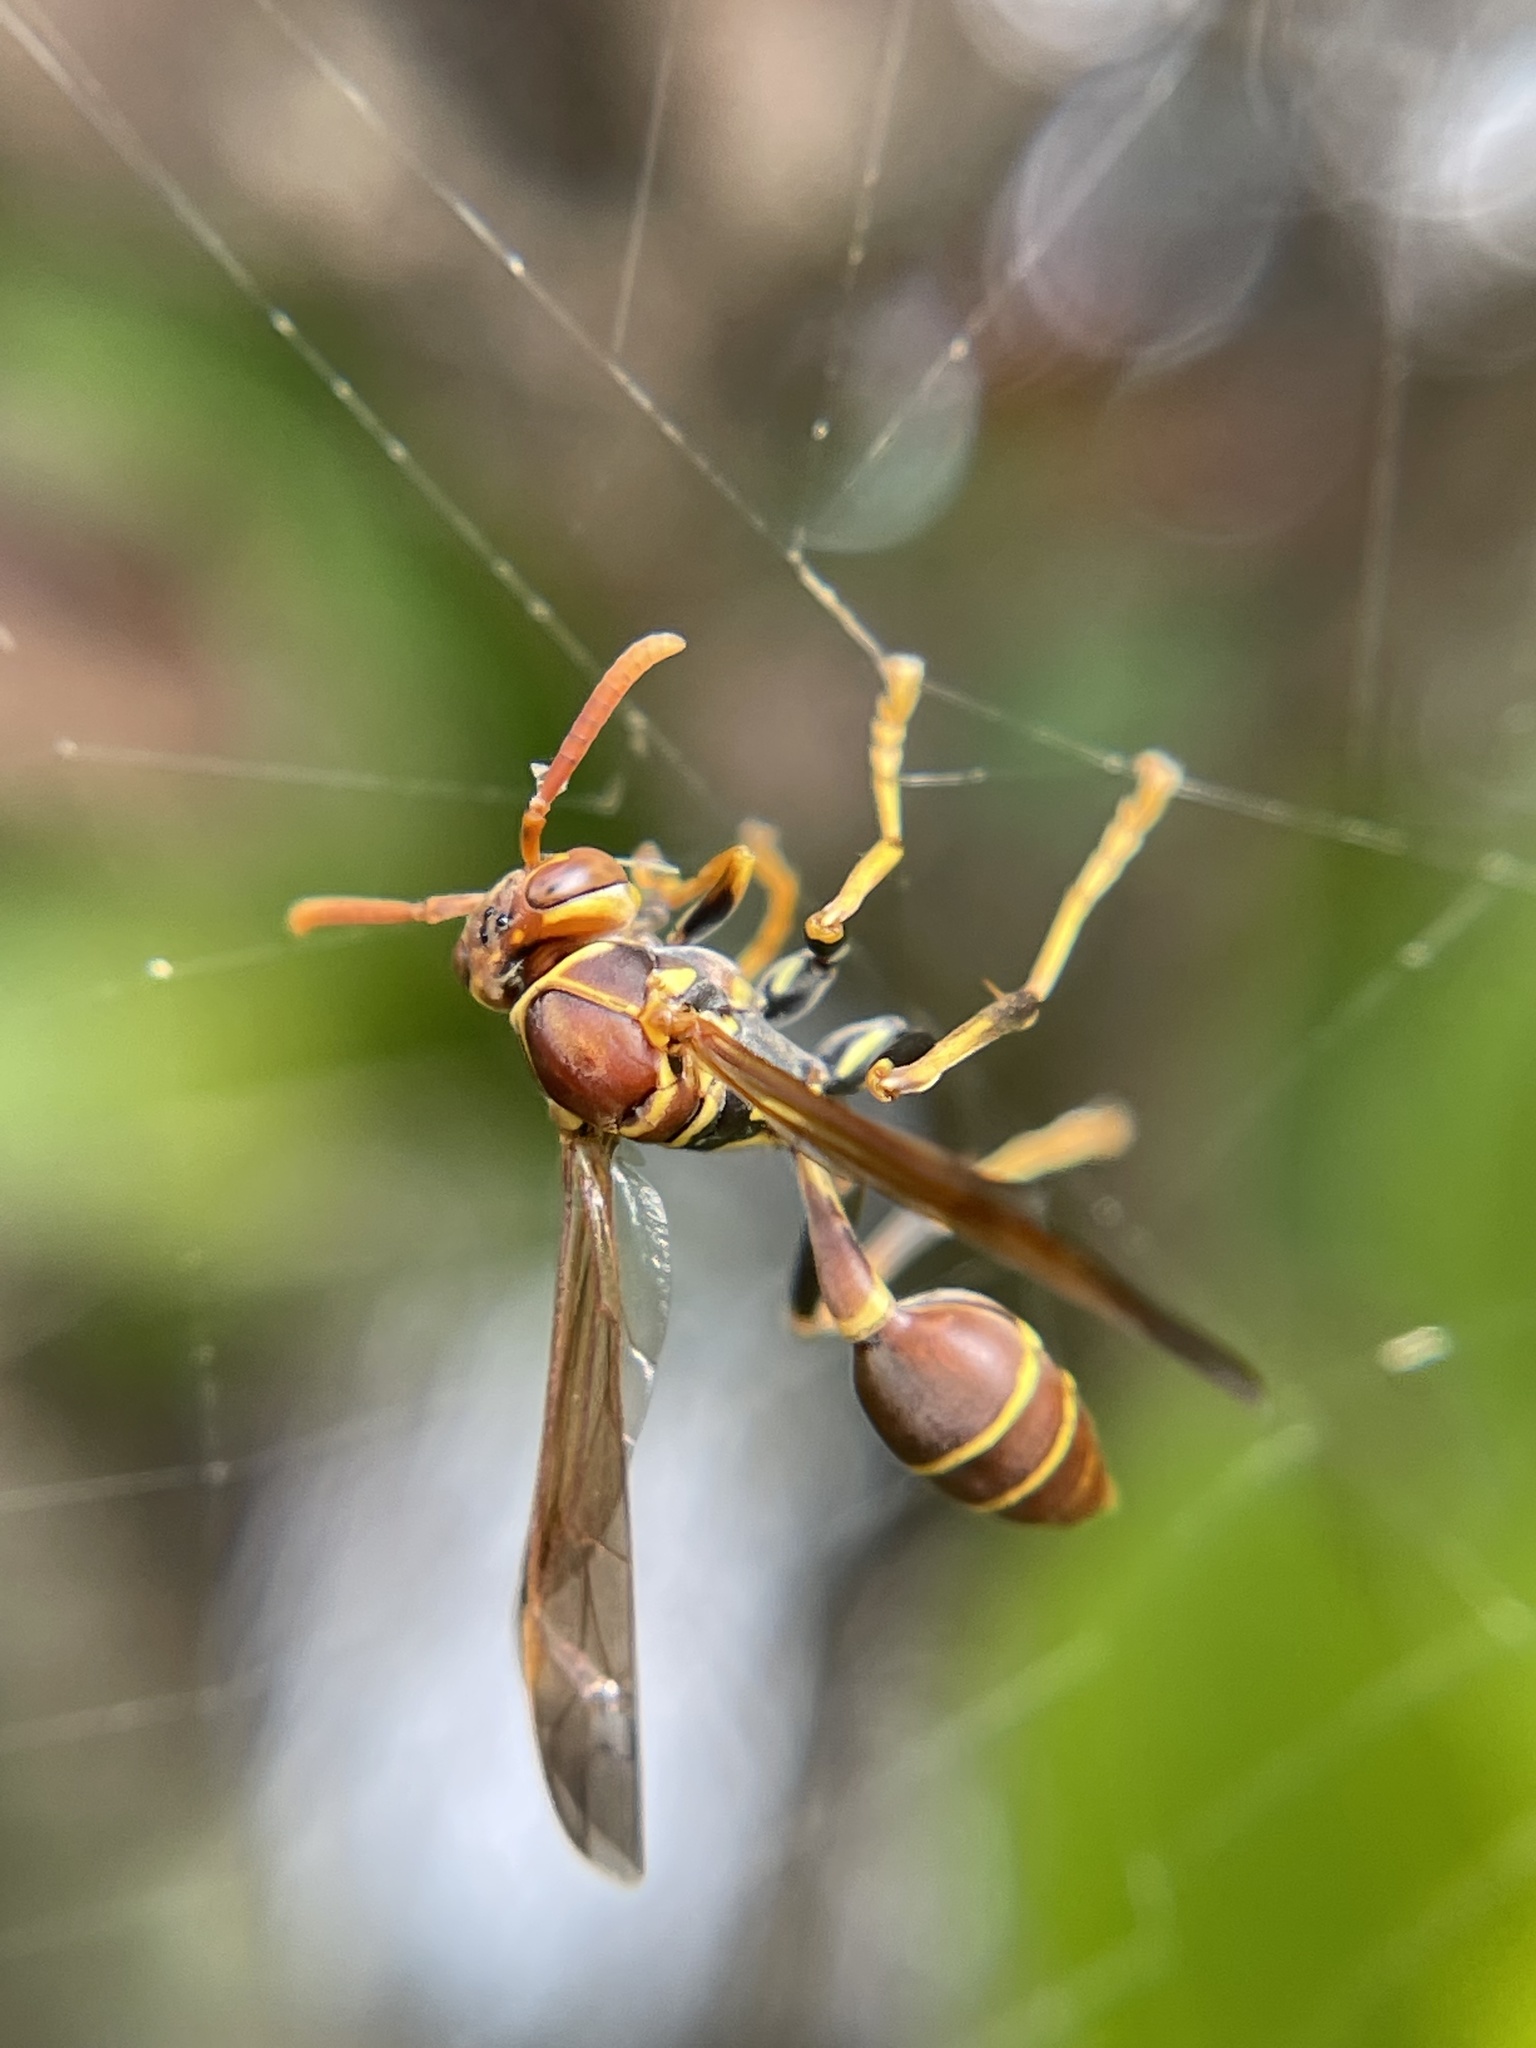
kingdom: Animalia
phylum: Arthropoda
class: Insecta
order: Hymenoptera
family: Vespidae
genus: Mischocyttarus
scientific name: Mischocyttarus mexicanus
